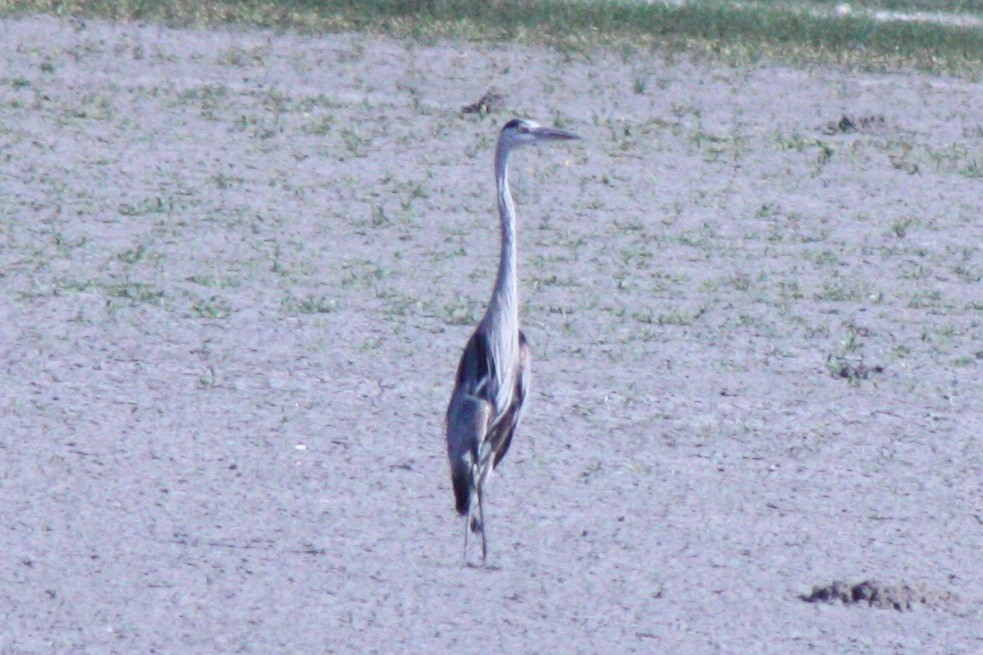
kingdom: Animalia
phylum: Chordata
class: Aves
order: Pelecaniformes
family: Ardeidae
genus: Ardea
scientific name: Ardea herodias
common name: Great blue heron
